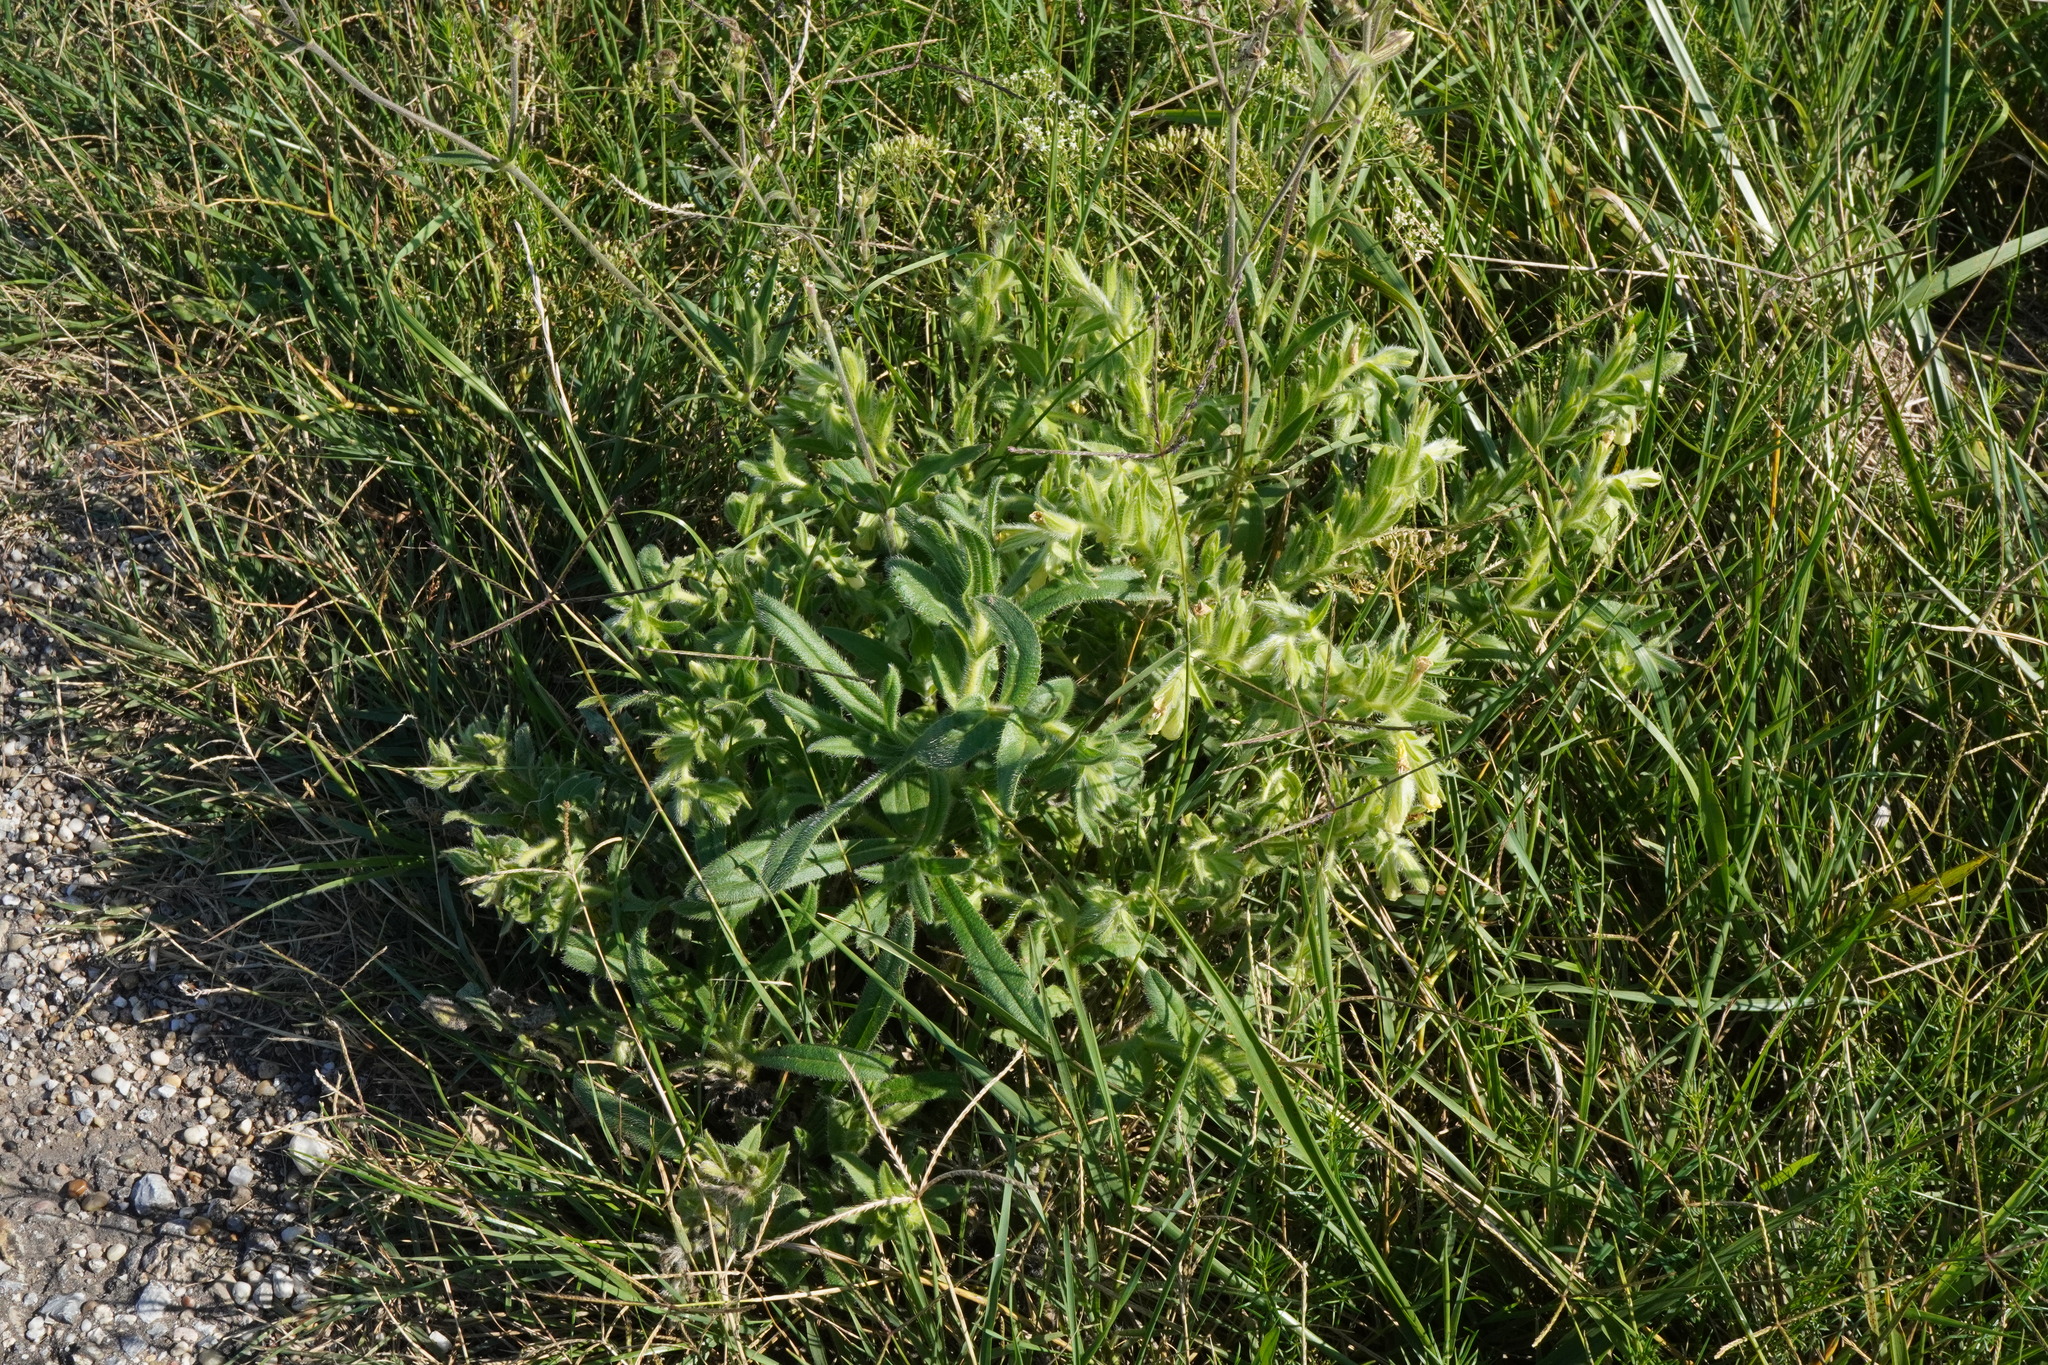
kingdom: Plantae
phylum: Tracheophyta
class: Magnoliopsida
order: Boraginales
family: Boraginaceae
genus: Onosma
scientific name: Onosma arenaria
